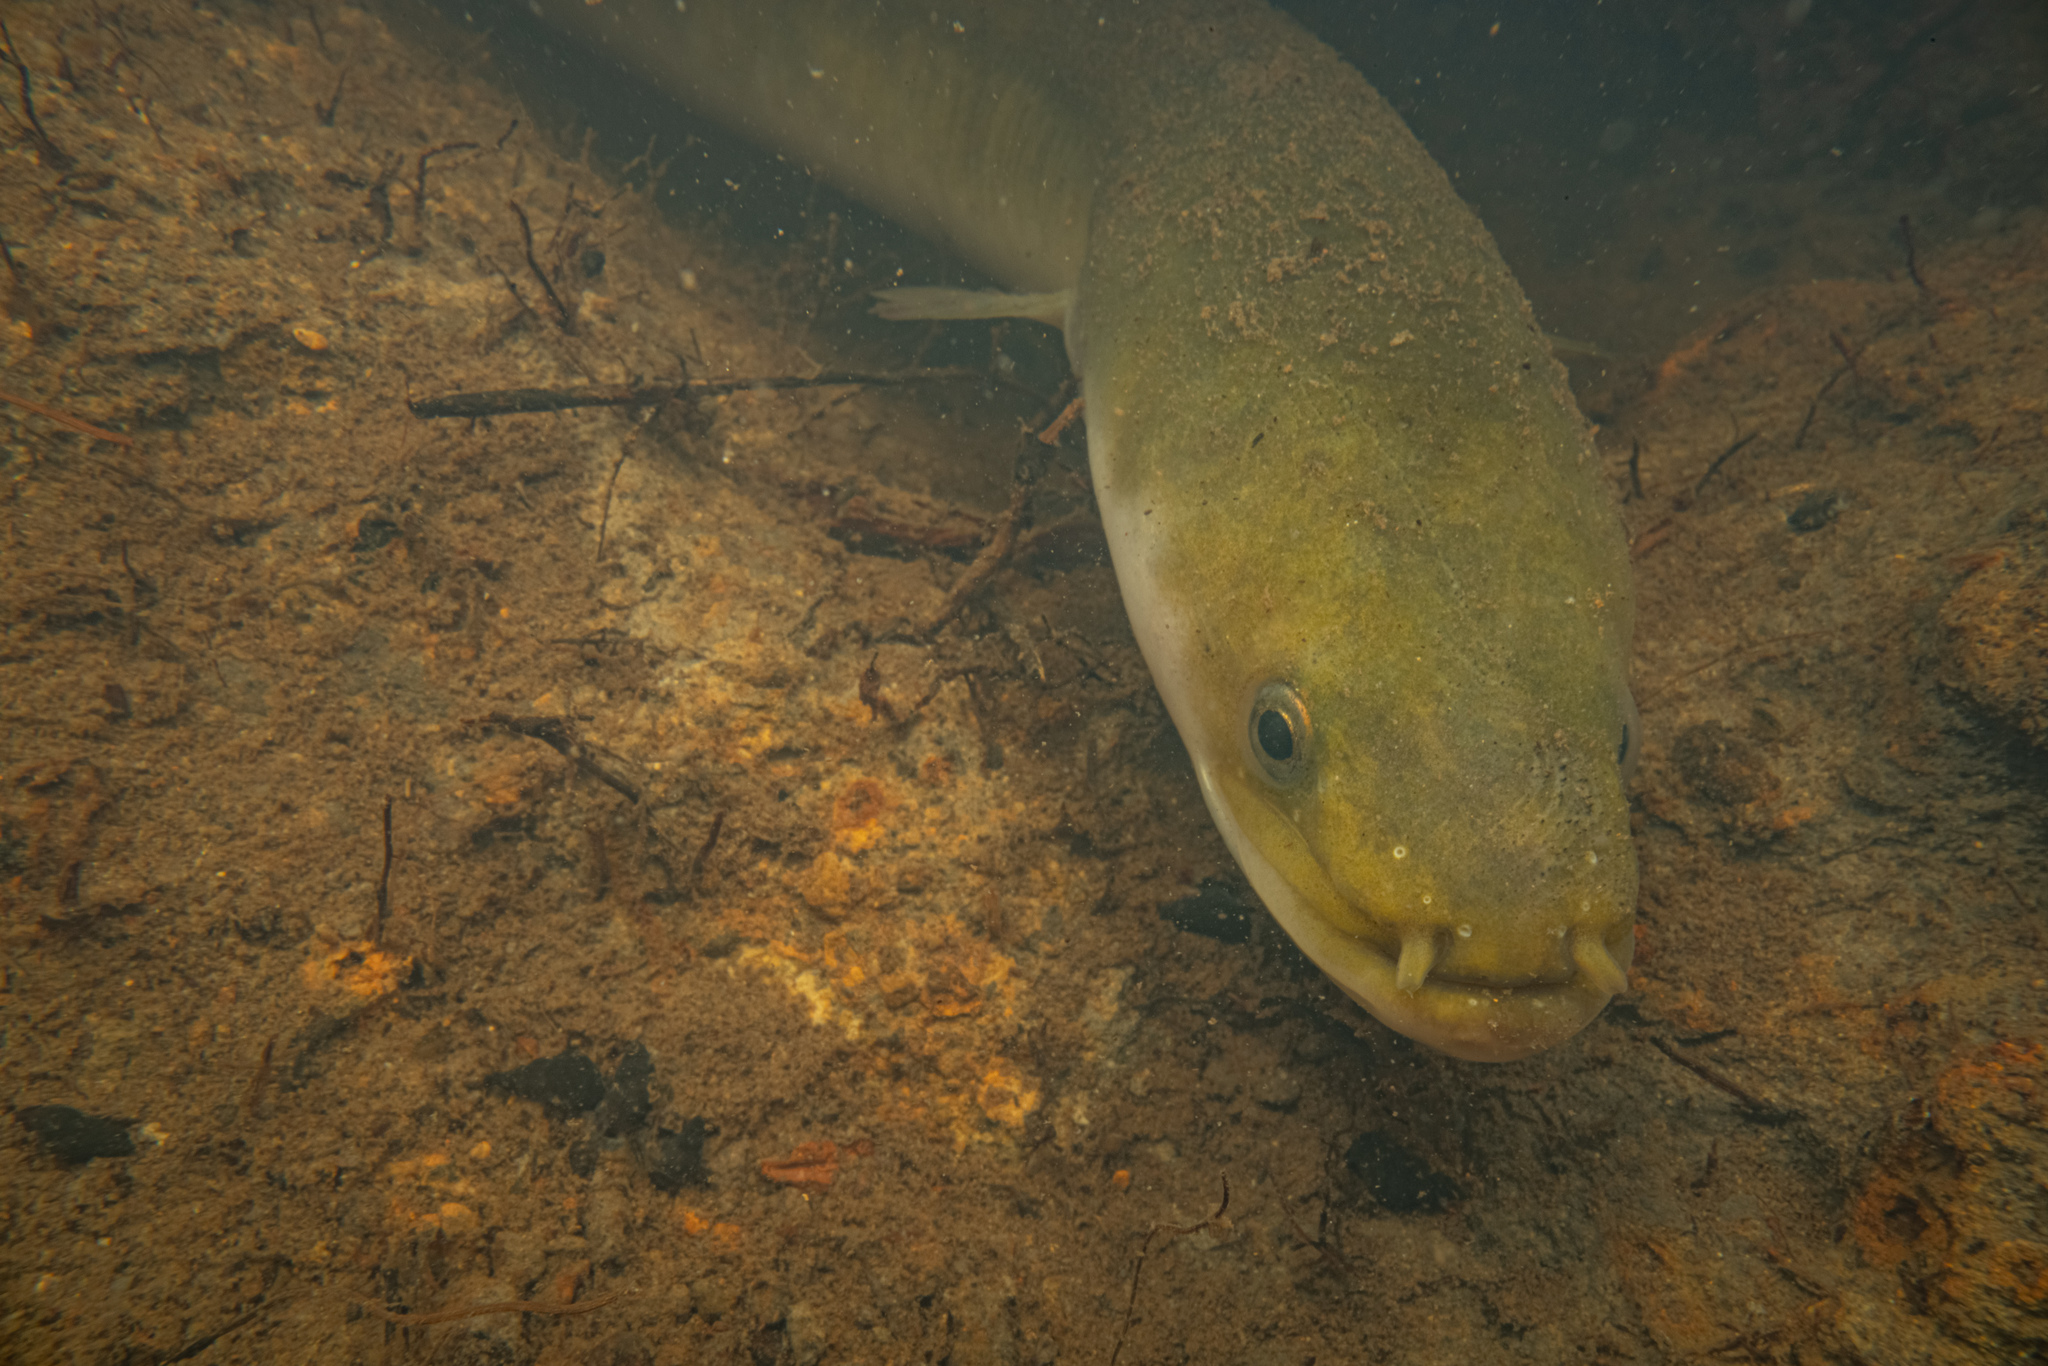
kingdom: Animalia
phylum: Chordata
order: Anguilliformes
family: Anguillidae
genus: Anguilla
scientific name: Anguilla australis
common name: Shortfin eel
